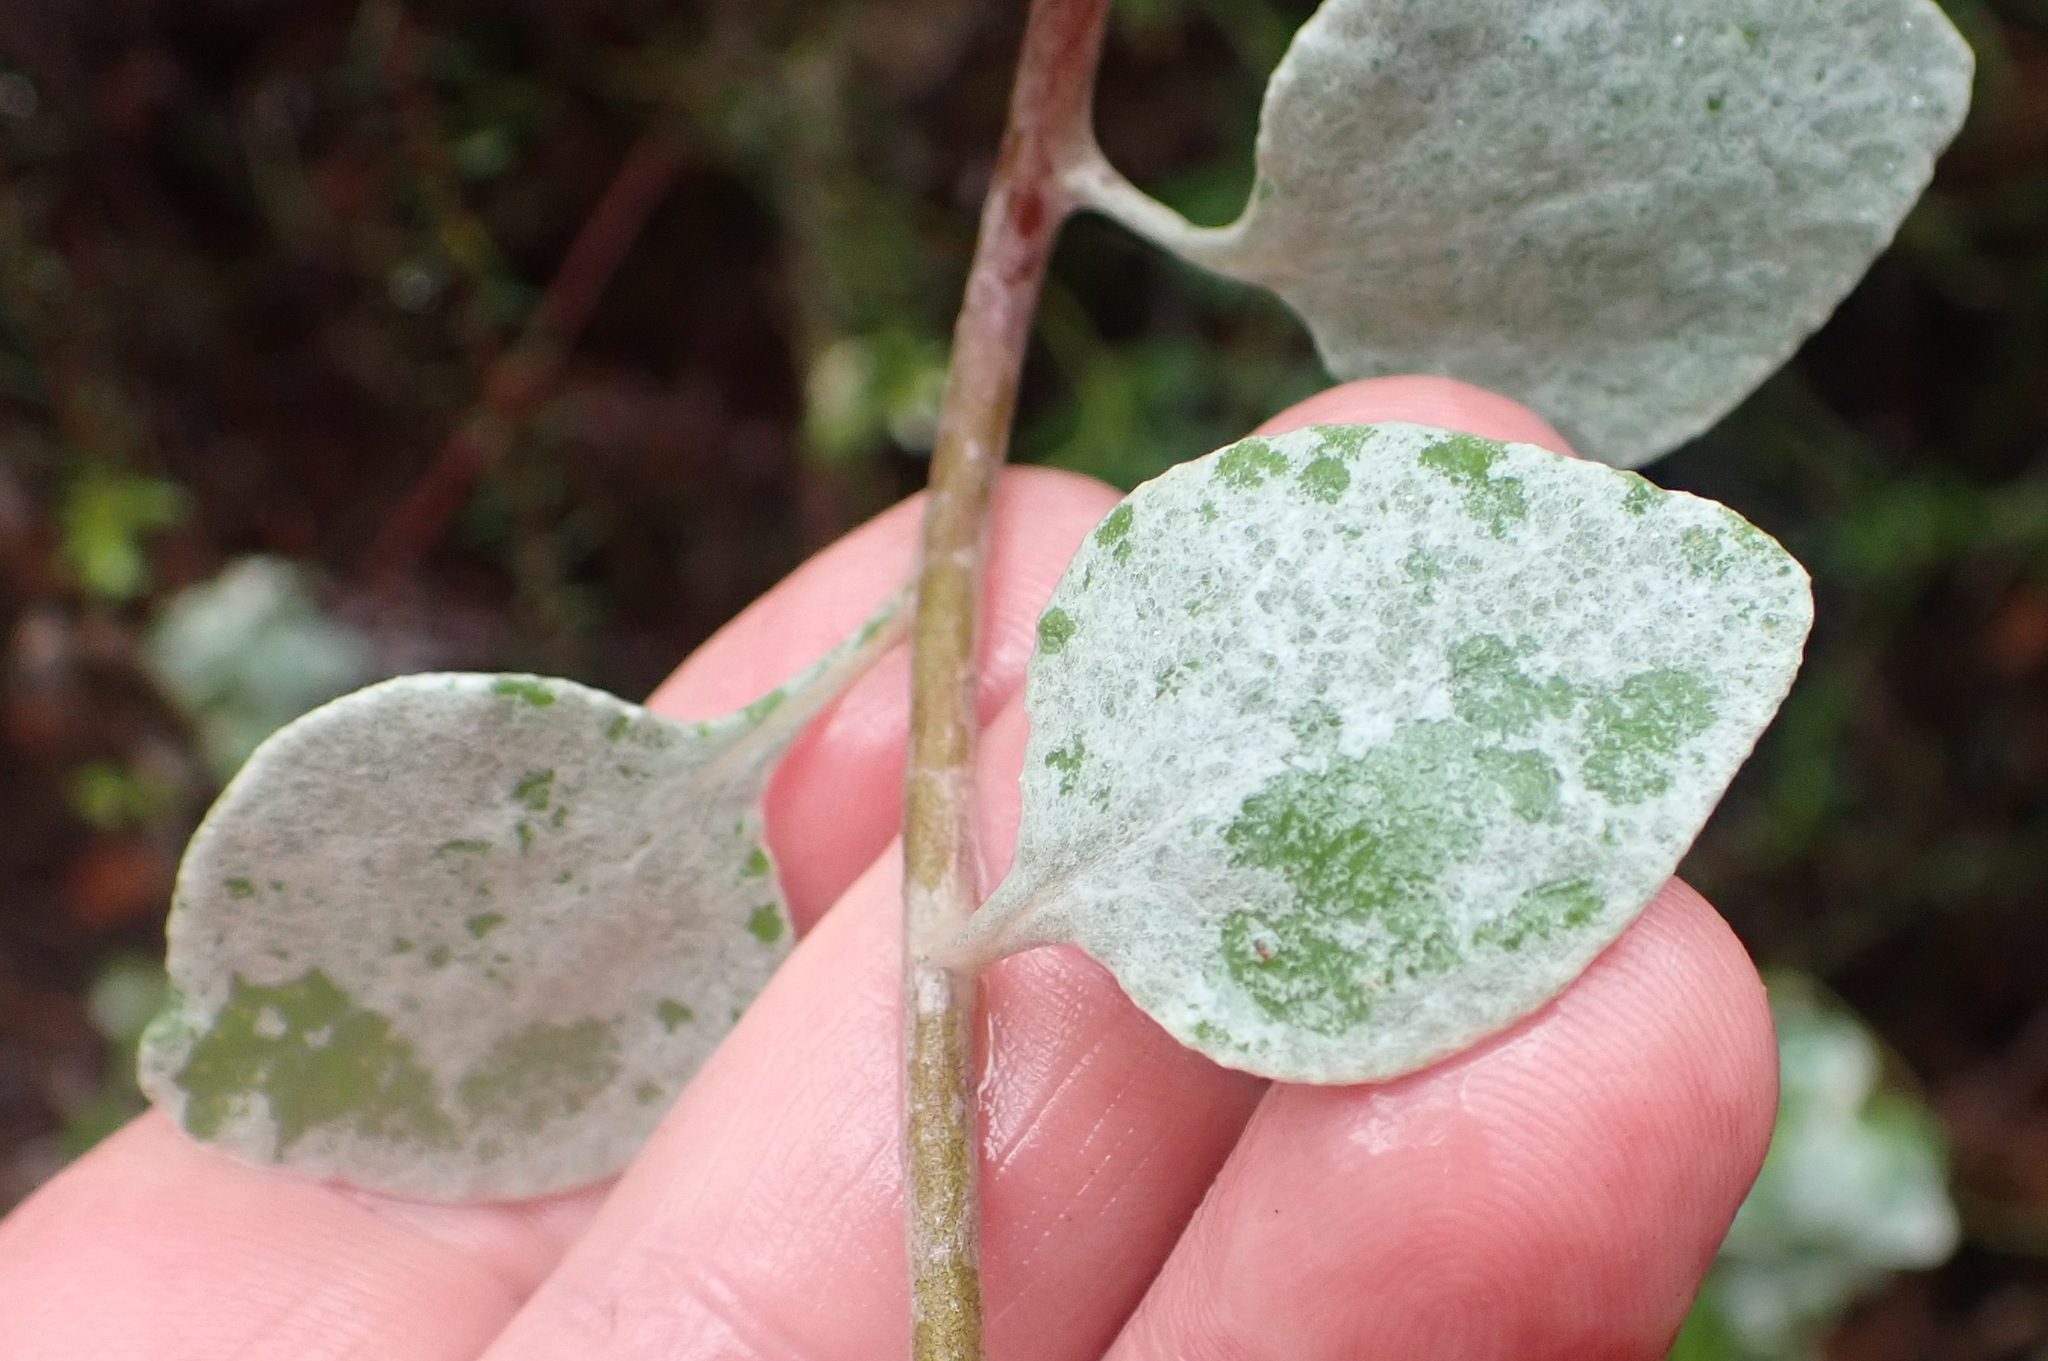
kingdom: Plantae
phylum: Tracheophyta
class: Magnoliopsida
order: Asterales
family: Asteraceae
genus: Helichrysum
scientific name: Helichrysum petiolare
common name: Licorice-plant
